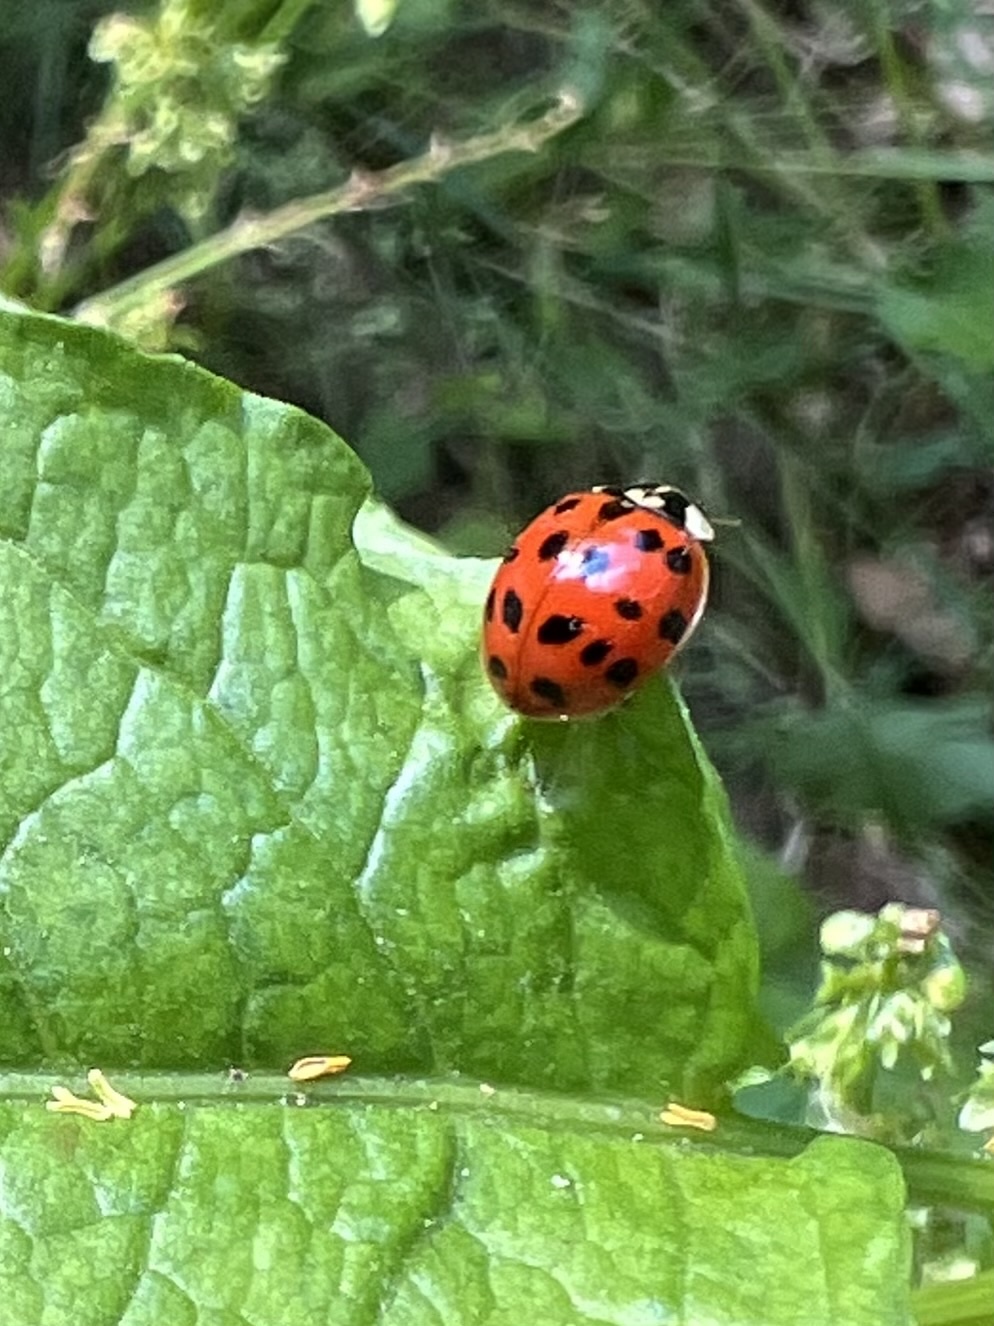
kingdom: Animalia
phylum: Arthropoda
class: Insecta
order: Coleoptera
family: Coccinellidae
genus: Harmonia
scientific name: Harmonia axyridis
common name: Harlequin ladybird
